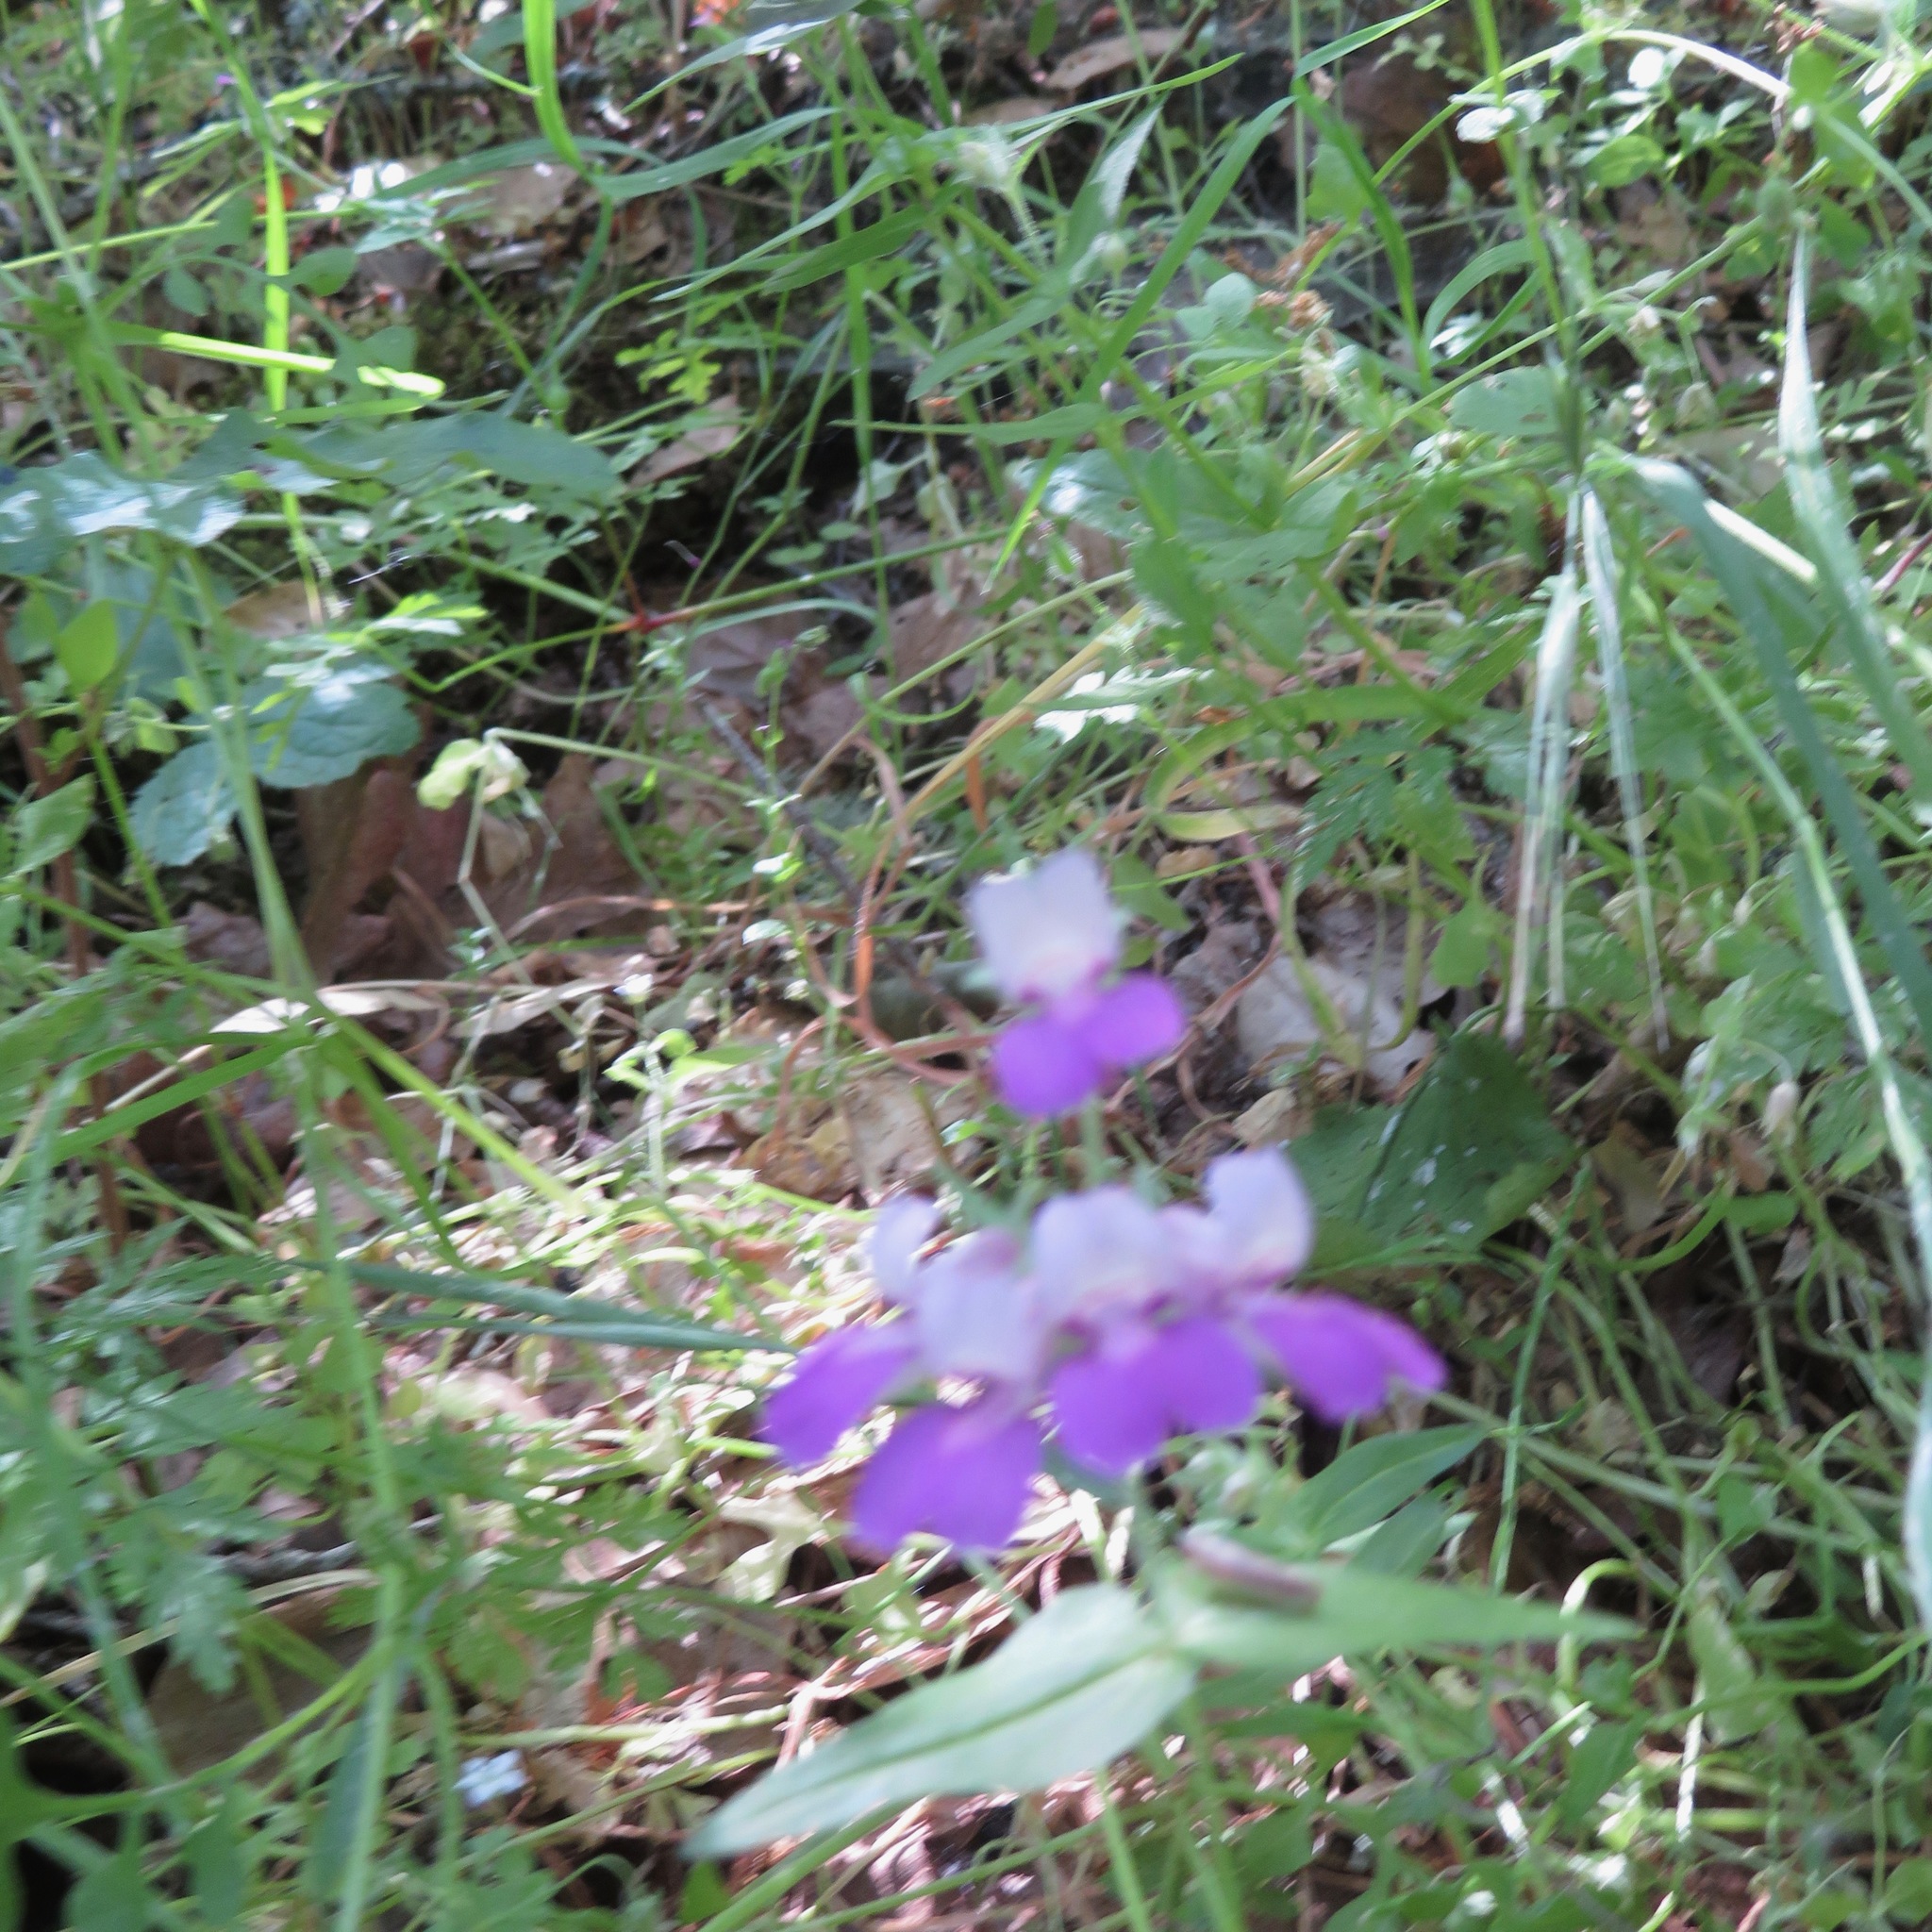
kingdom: Plantae
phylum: Tracheophyta
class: Magnoliopsida
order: Lamiales
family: Plantaginaceae
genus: Collinsia
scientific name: Collinsia heterophylla
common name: Chinese-houses
